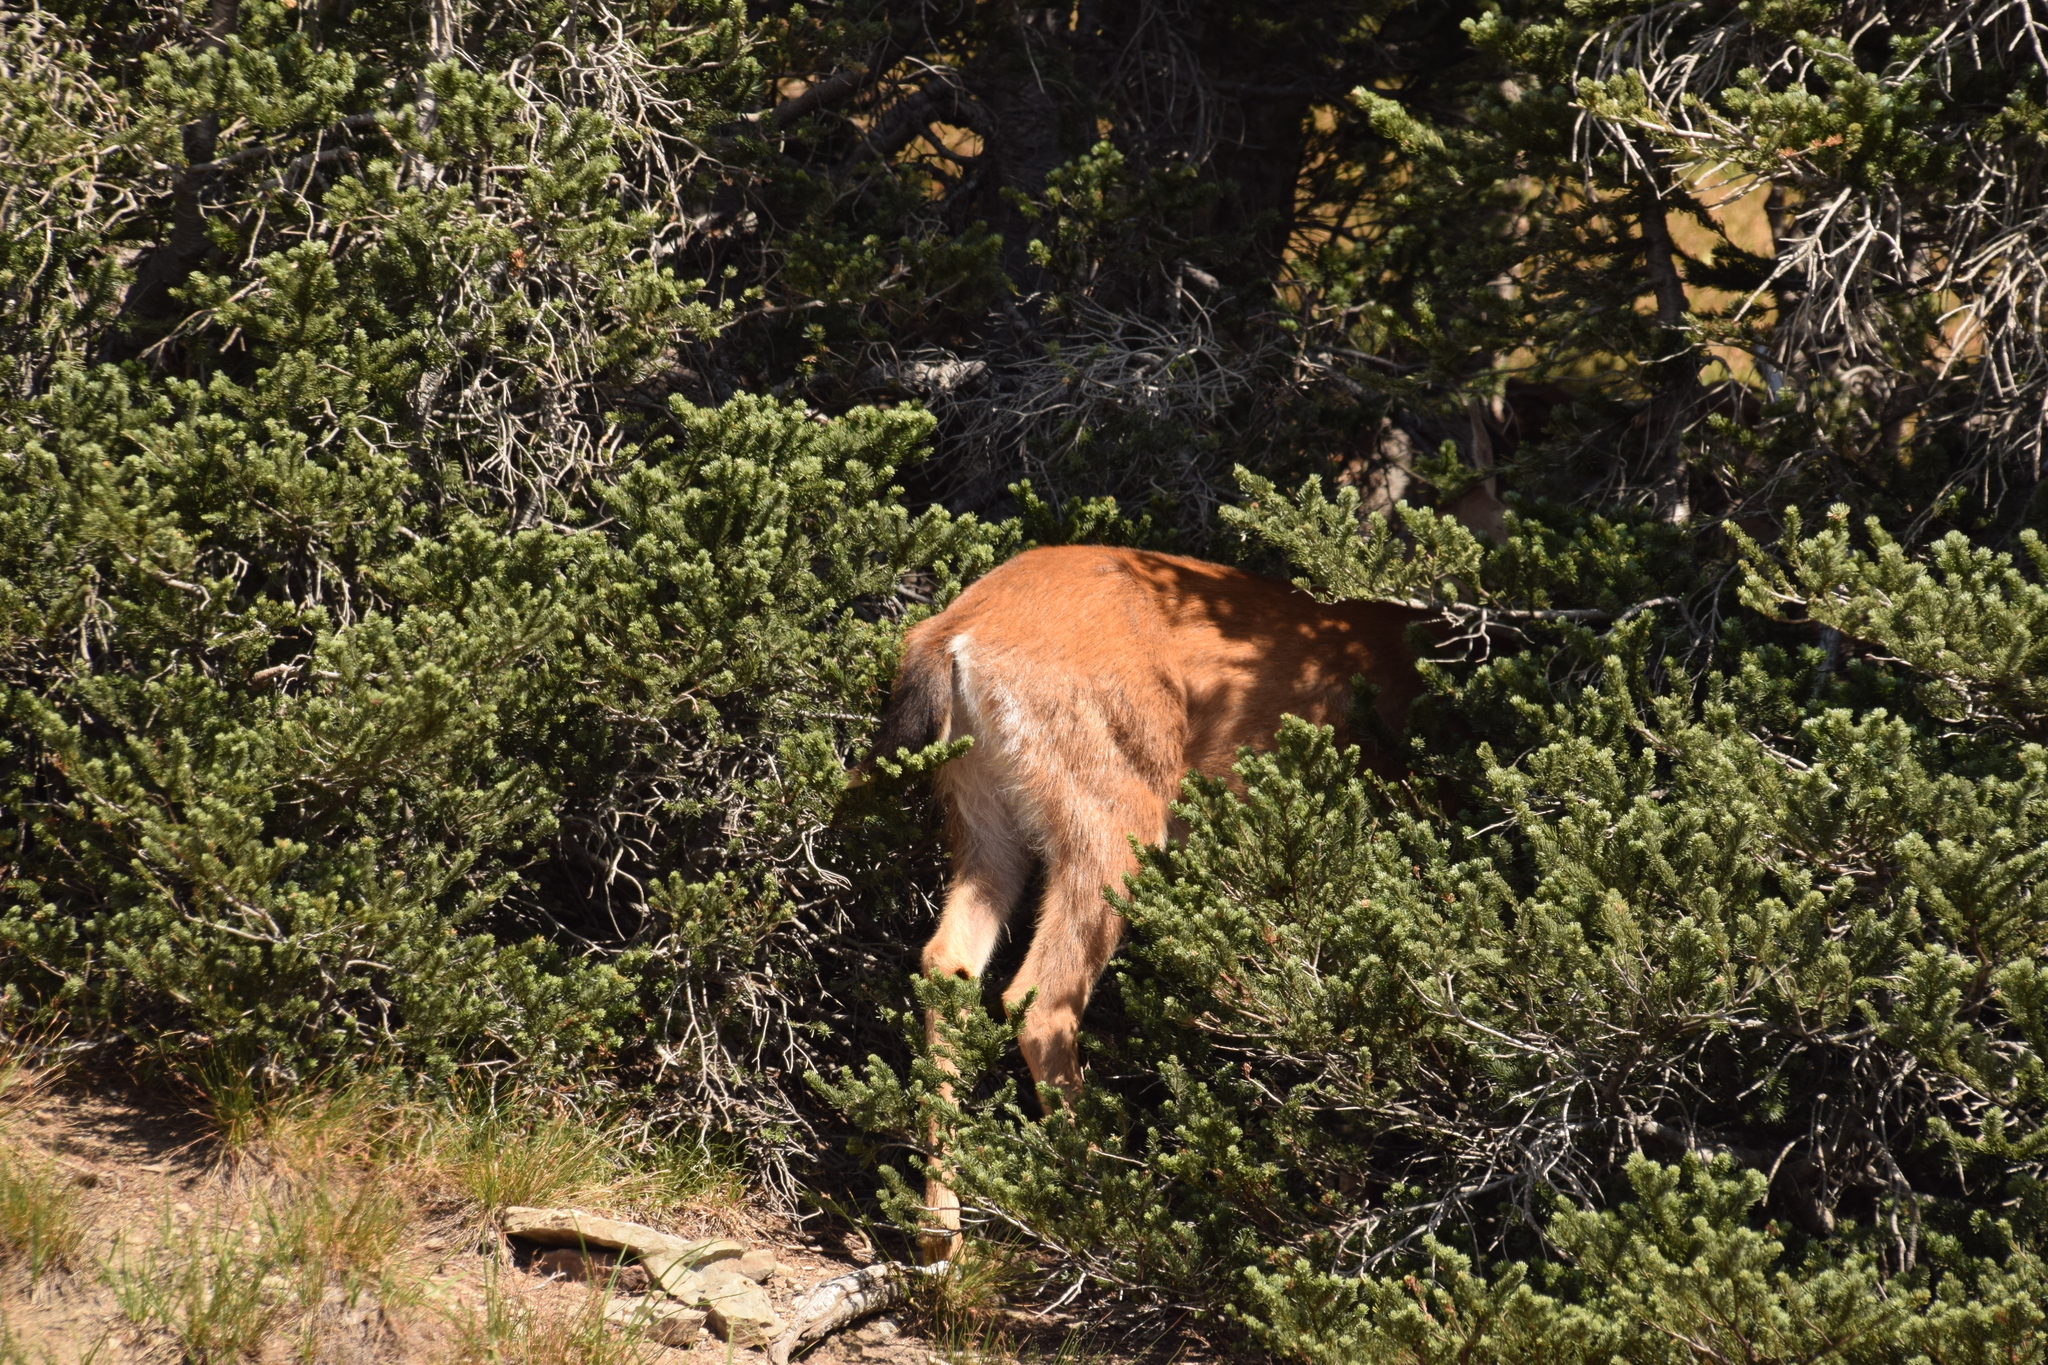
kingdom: Animalia
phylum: Chordata
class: Mammalia
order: Artiodactyla
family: Cervidae
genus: Odocoileus
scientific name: Odocoileus hemionus
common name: Mule deer
